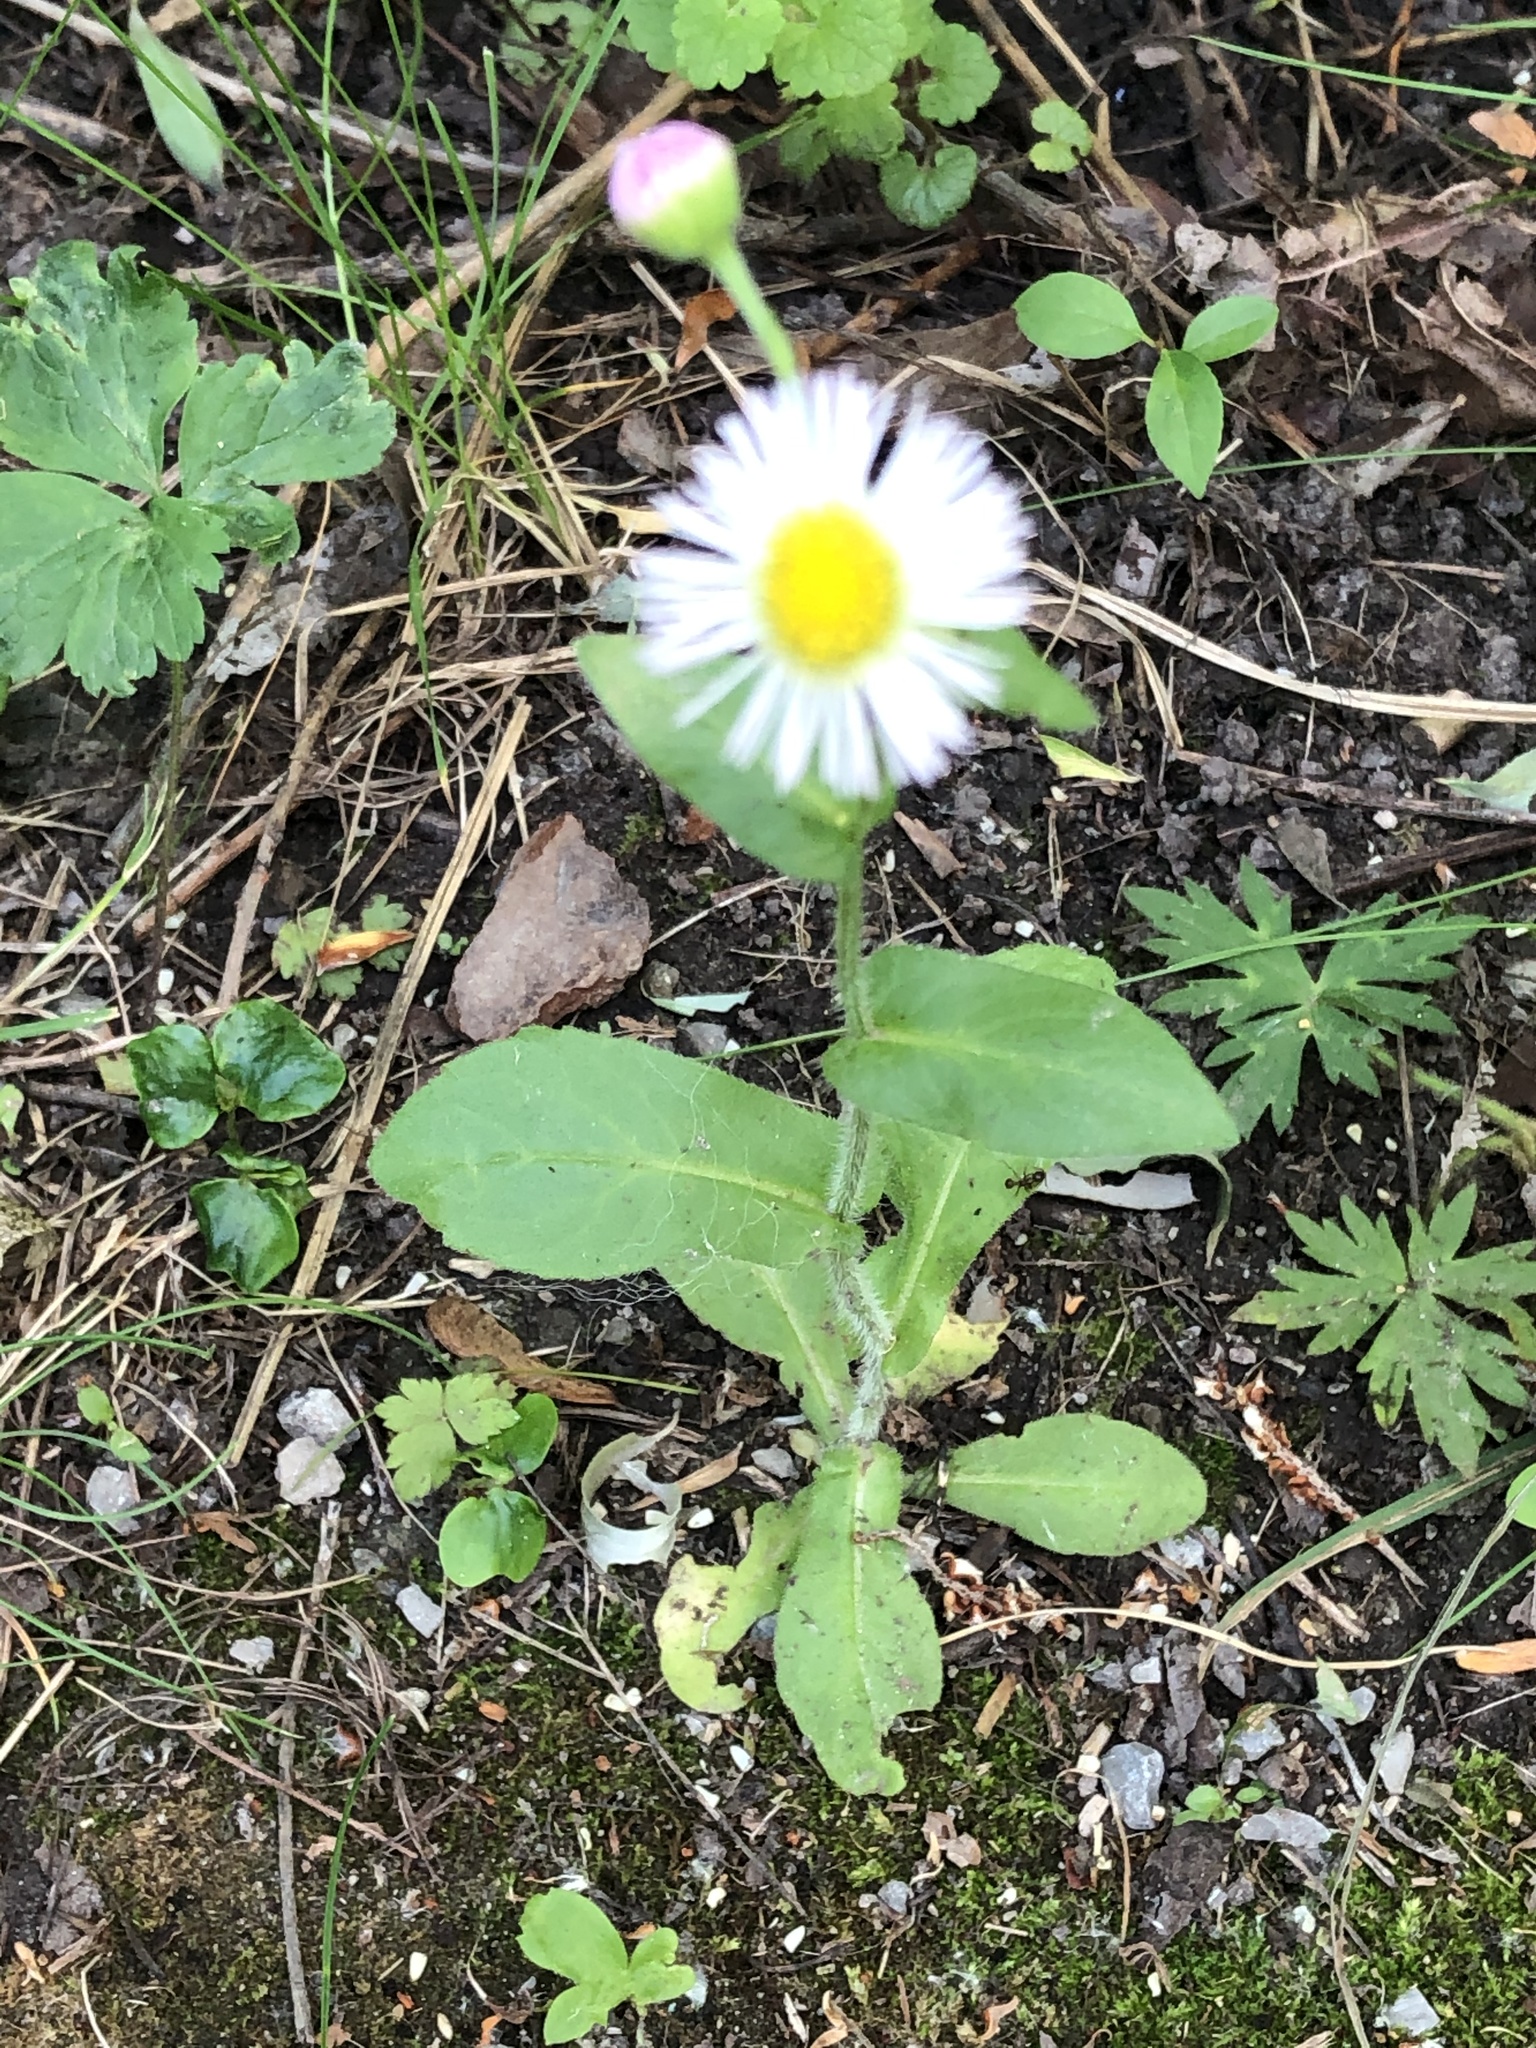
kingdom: Plantae
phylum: Tracheophyta
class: Magnoliopsida
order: Asterales
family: Asteraceae
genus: Erigeron
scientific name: Erigeron philadelphicus
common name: Robin's-plantain
